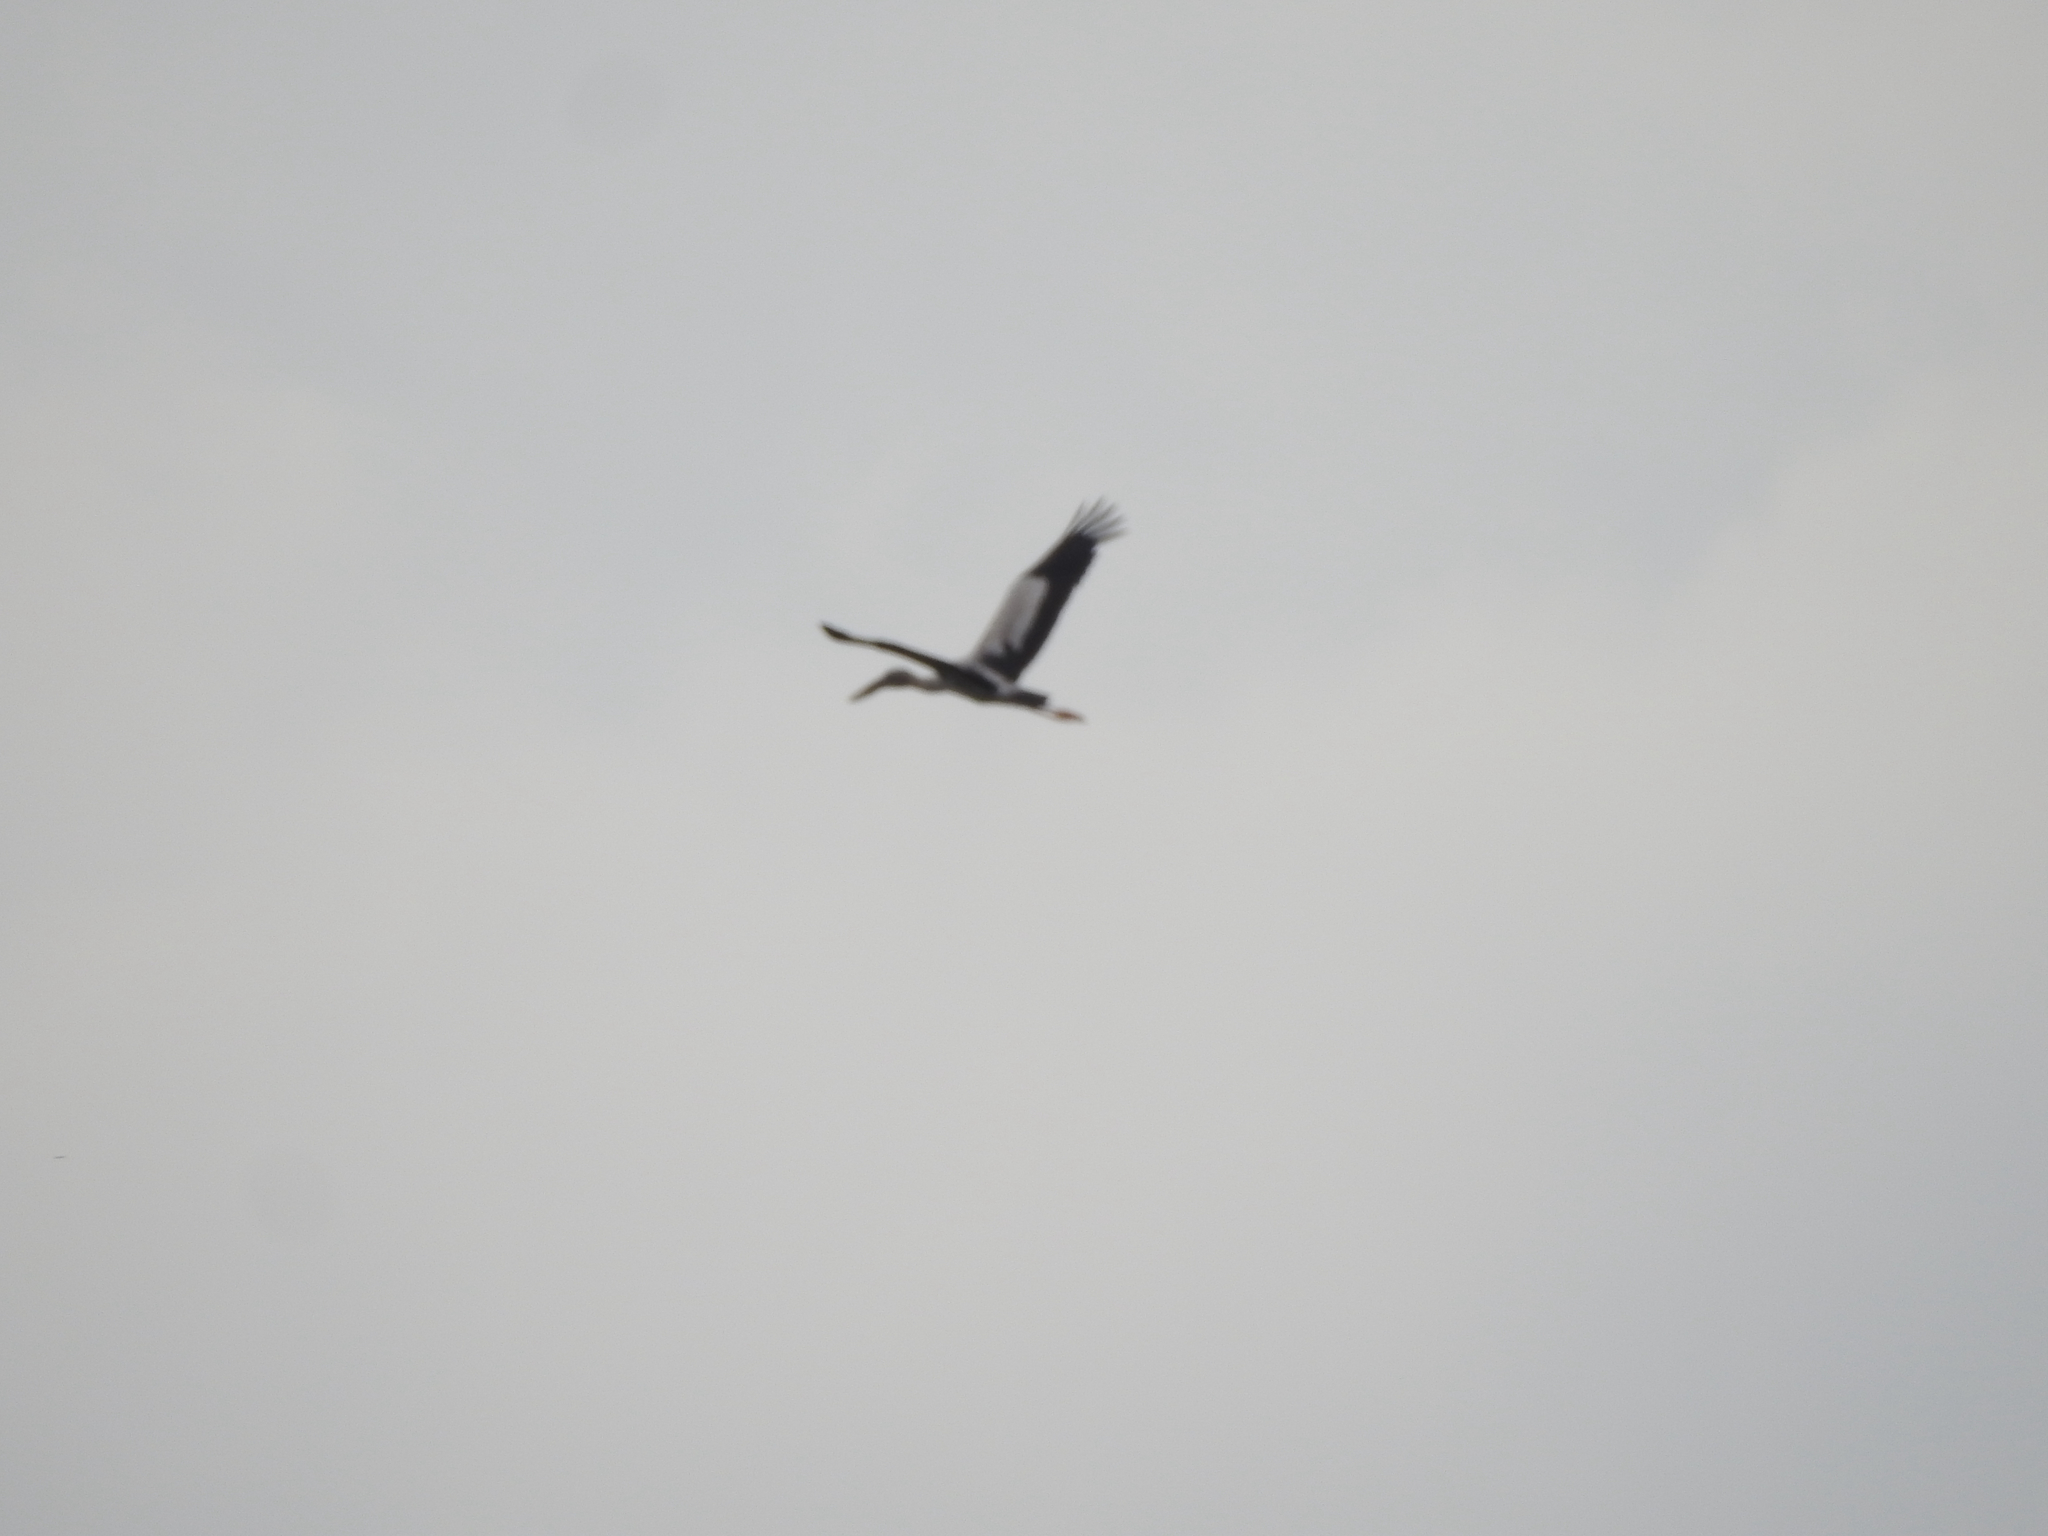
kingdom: Animalia
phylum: Chordata
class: Aves
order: Ciconiiformes
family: Ciconiidae
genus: Anastomus
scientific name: Anastomus oscitans
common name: Asian openbill
